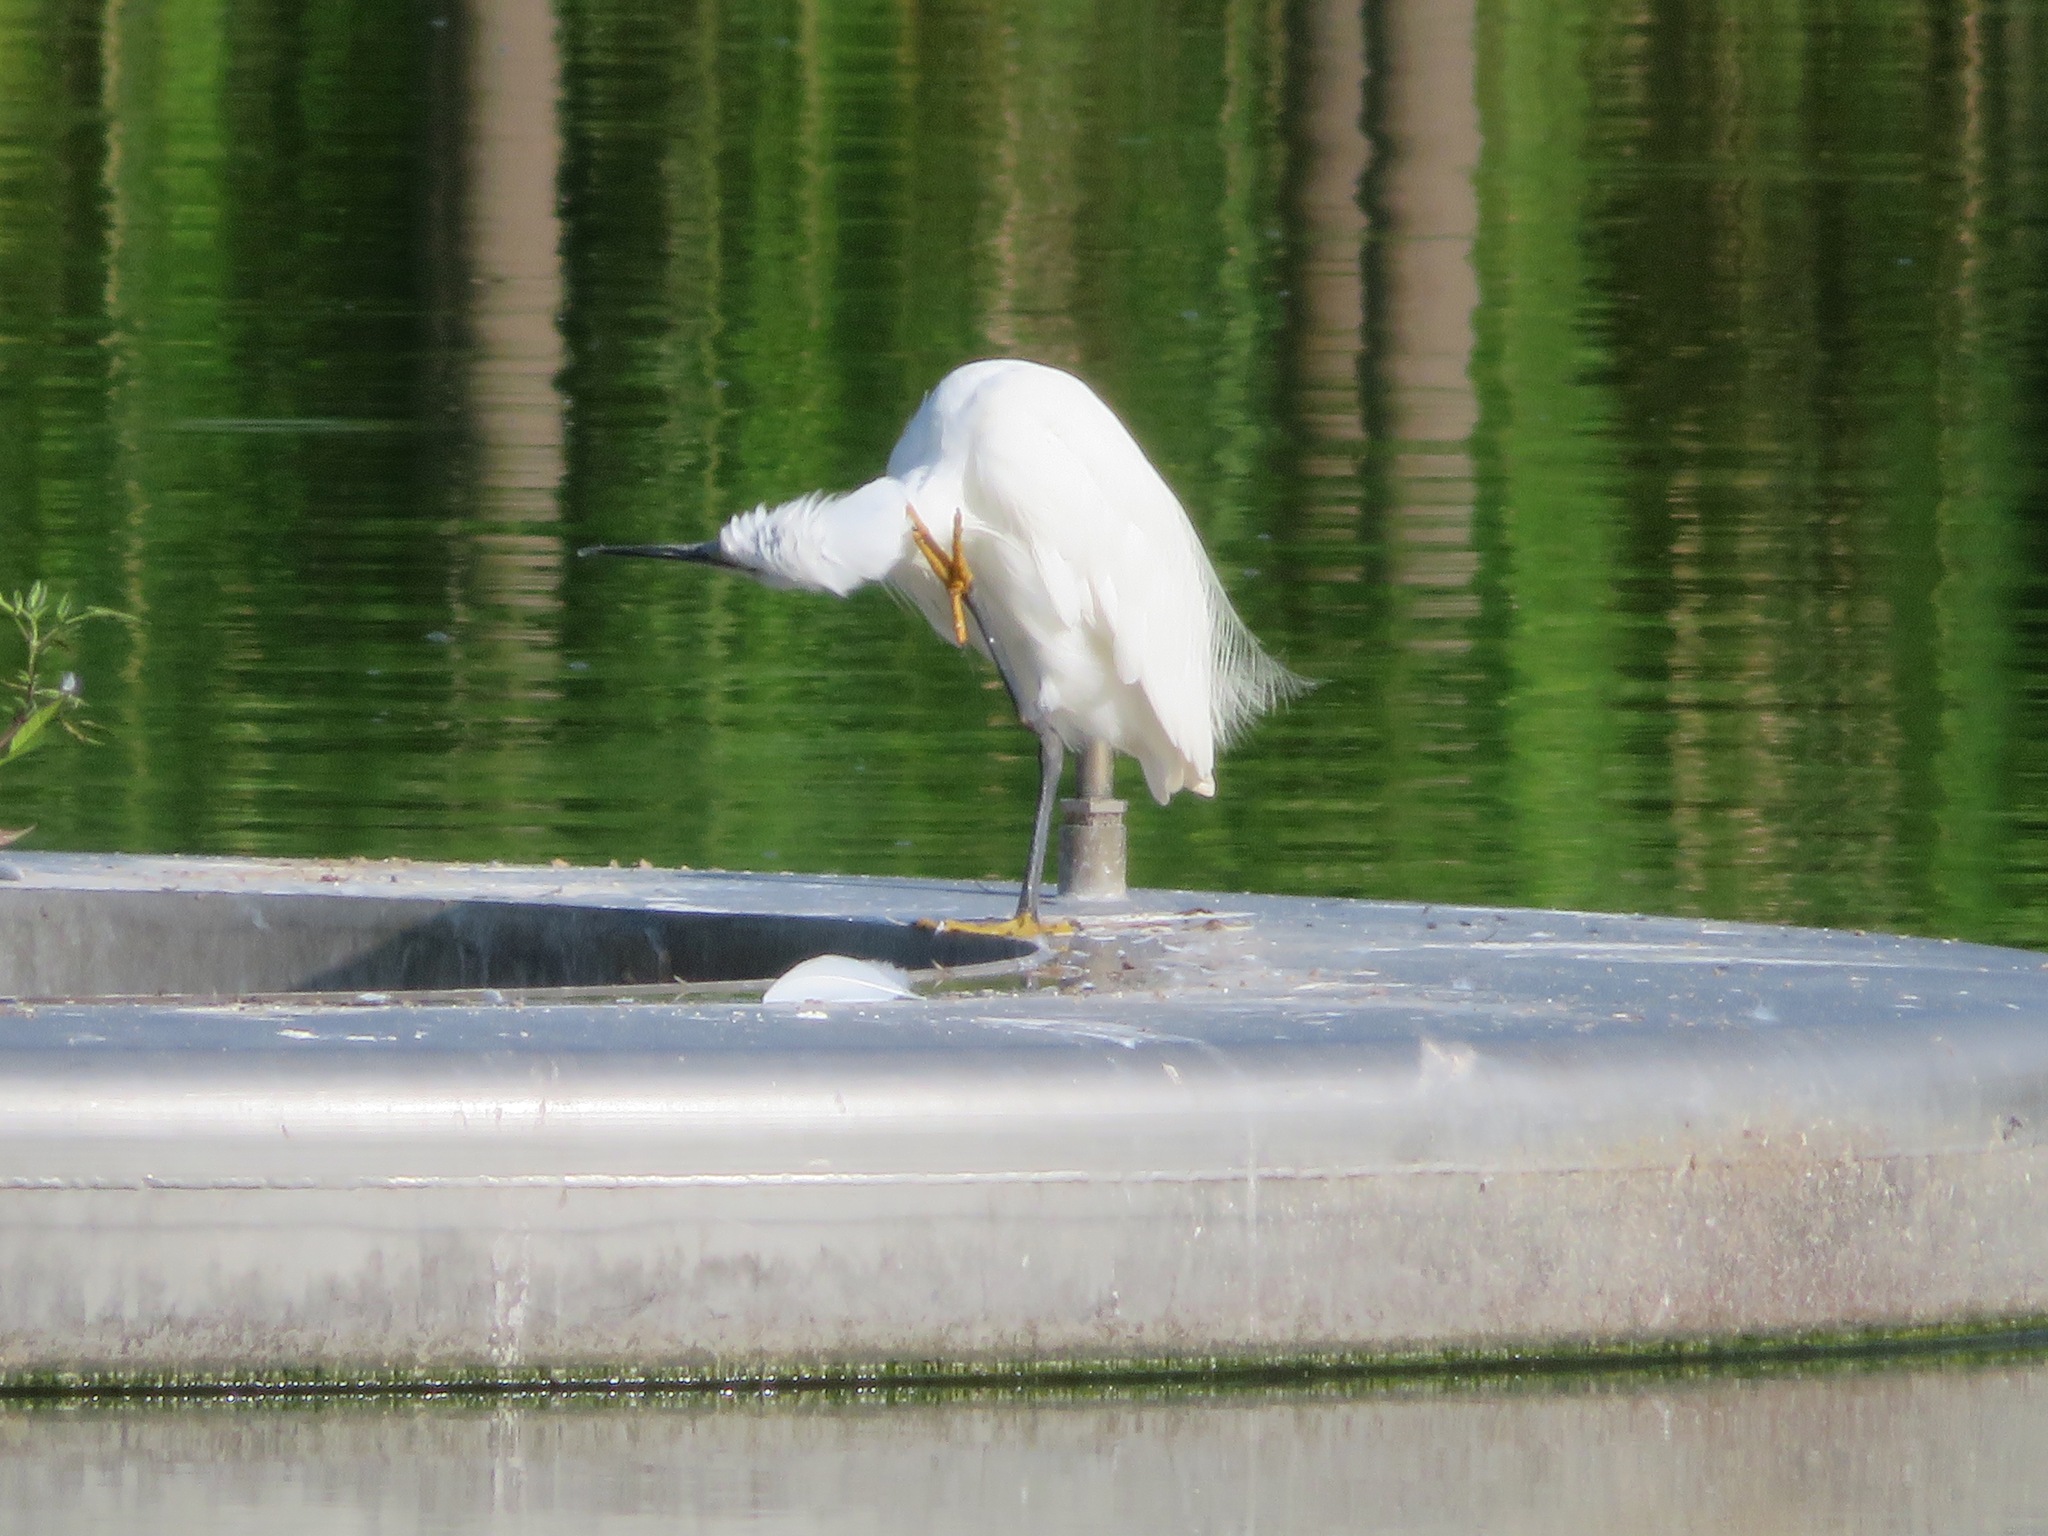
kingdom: Animalia
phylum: Chordata
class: Aves
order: Pelecaniformes
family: Ardeidae
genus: Egretta
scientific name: Egretta garzetta
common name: Little egret
